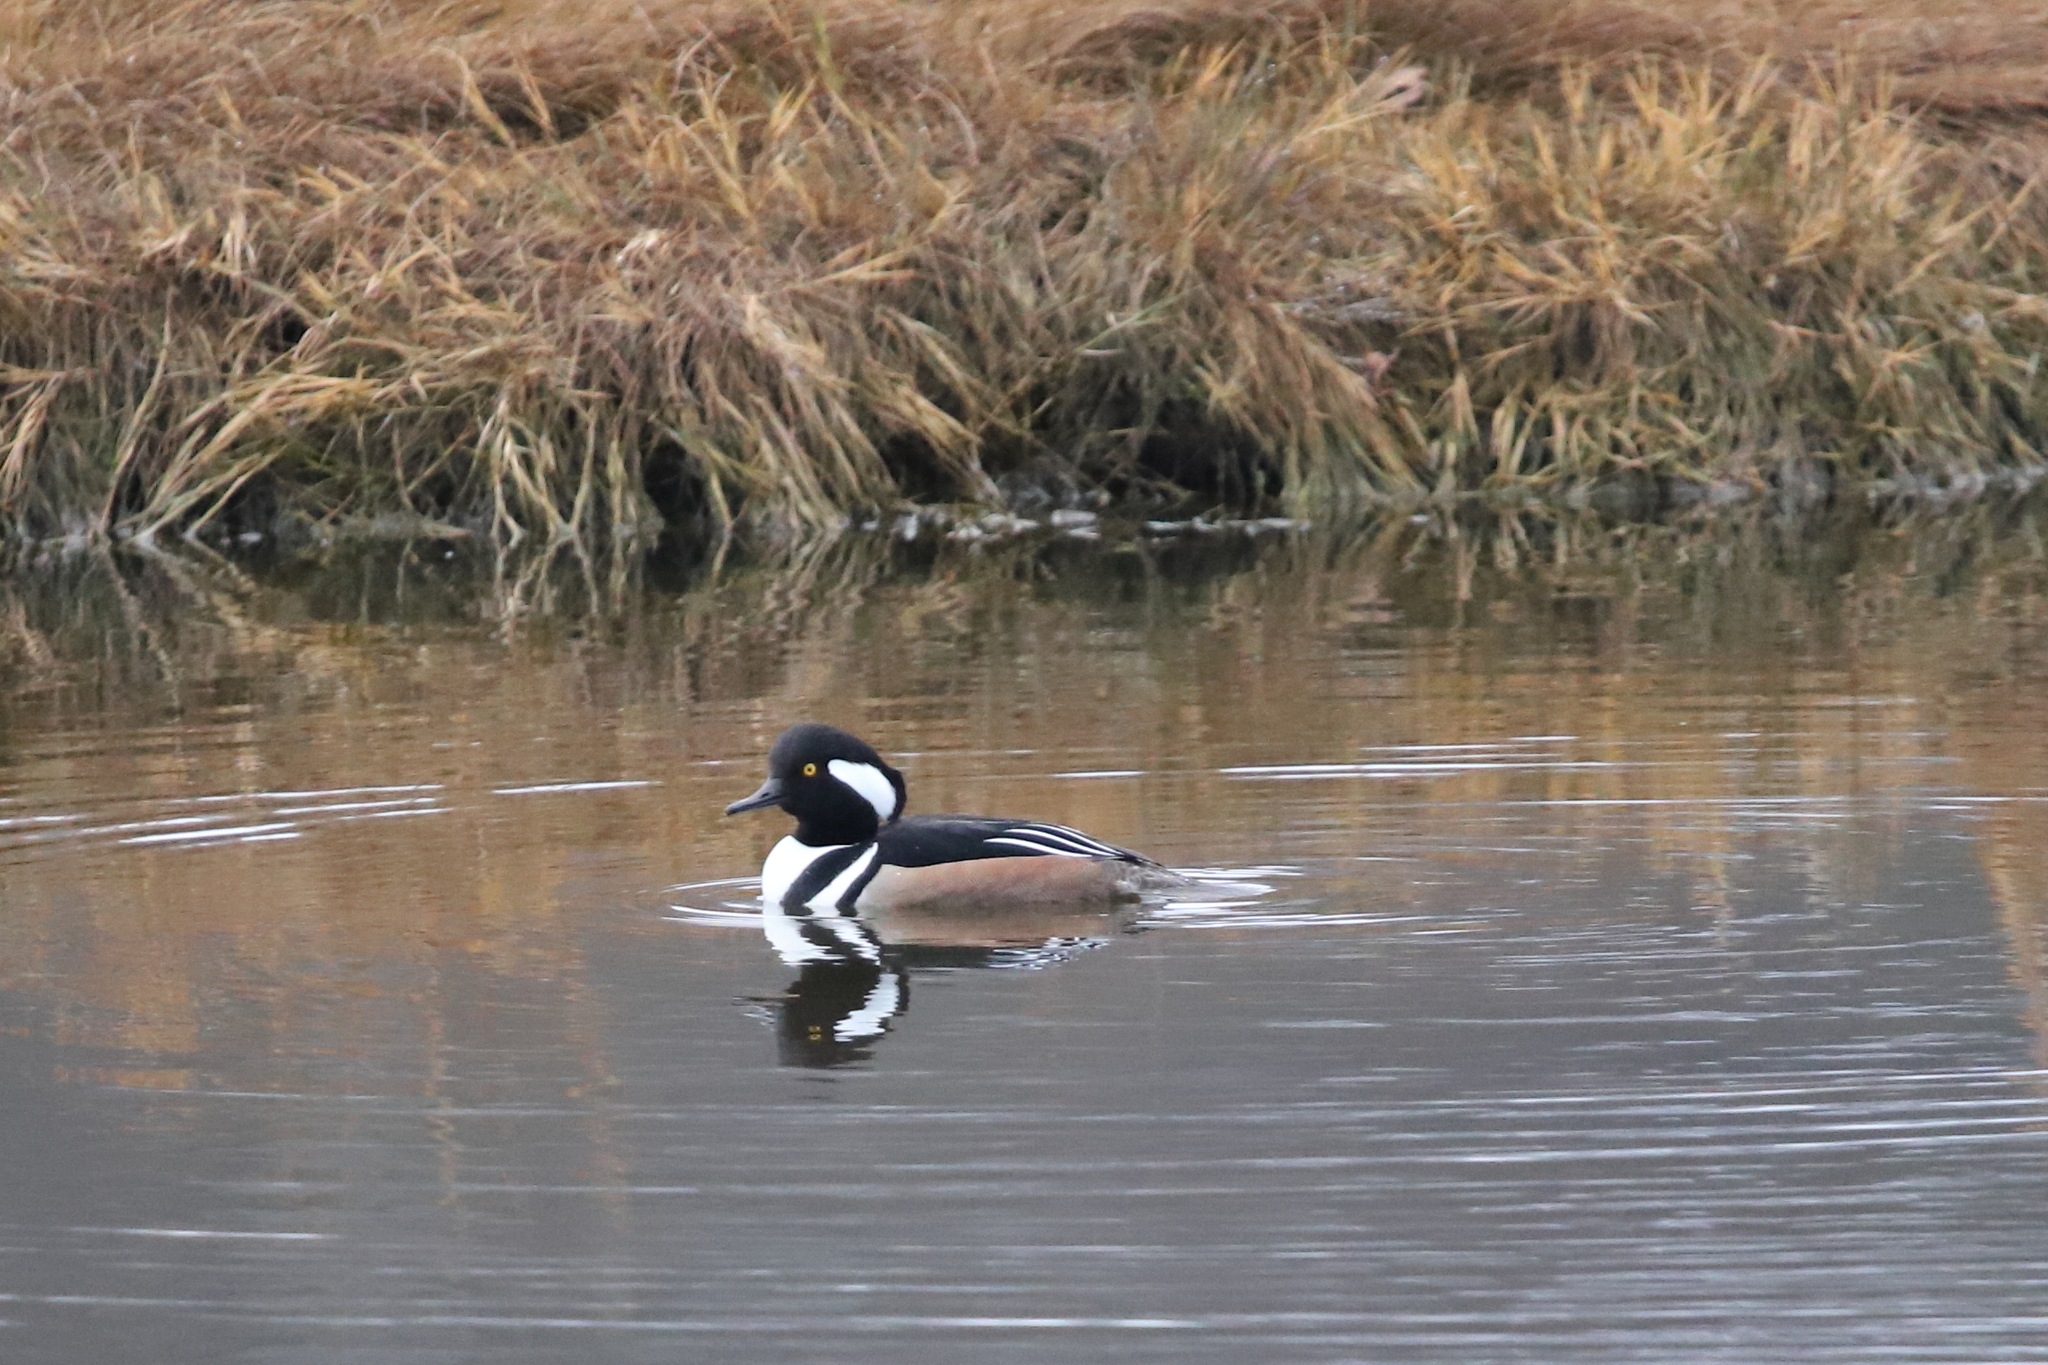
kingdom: Animalia
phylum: Chordata
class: Aves
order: Anseriformes
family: Anatidae
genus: Lophodytes
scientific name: Lophodytes cucullatus
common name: Hooded merganser
